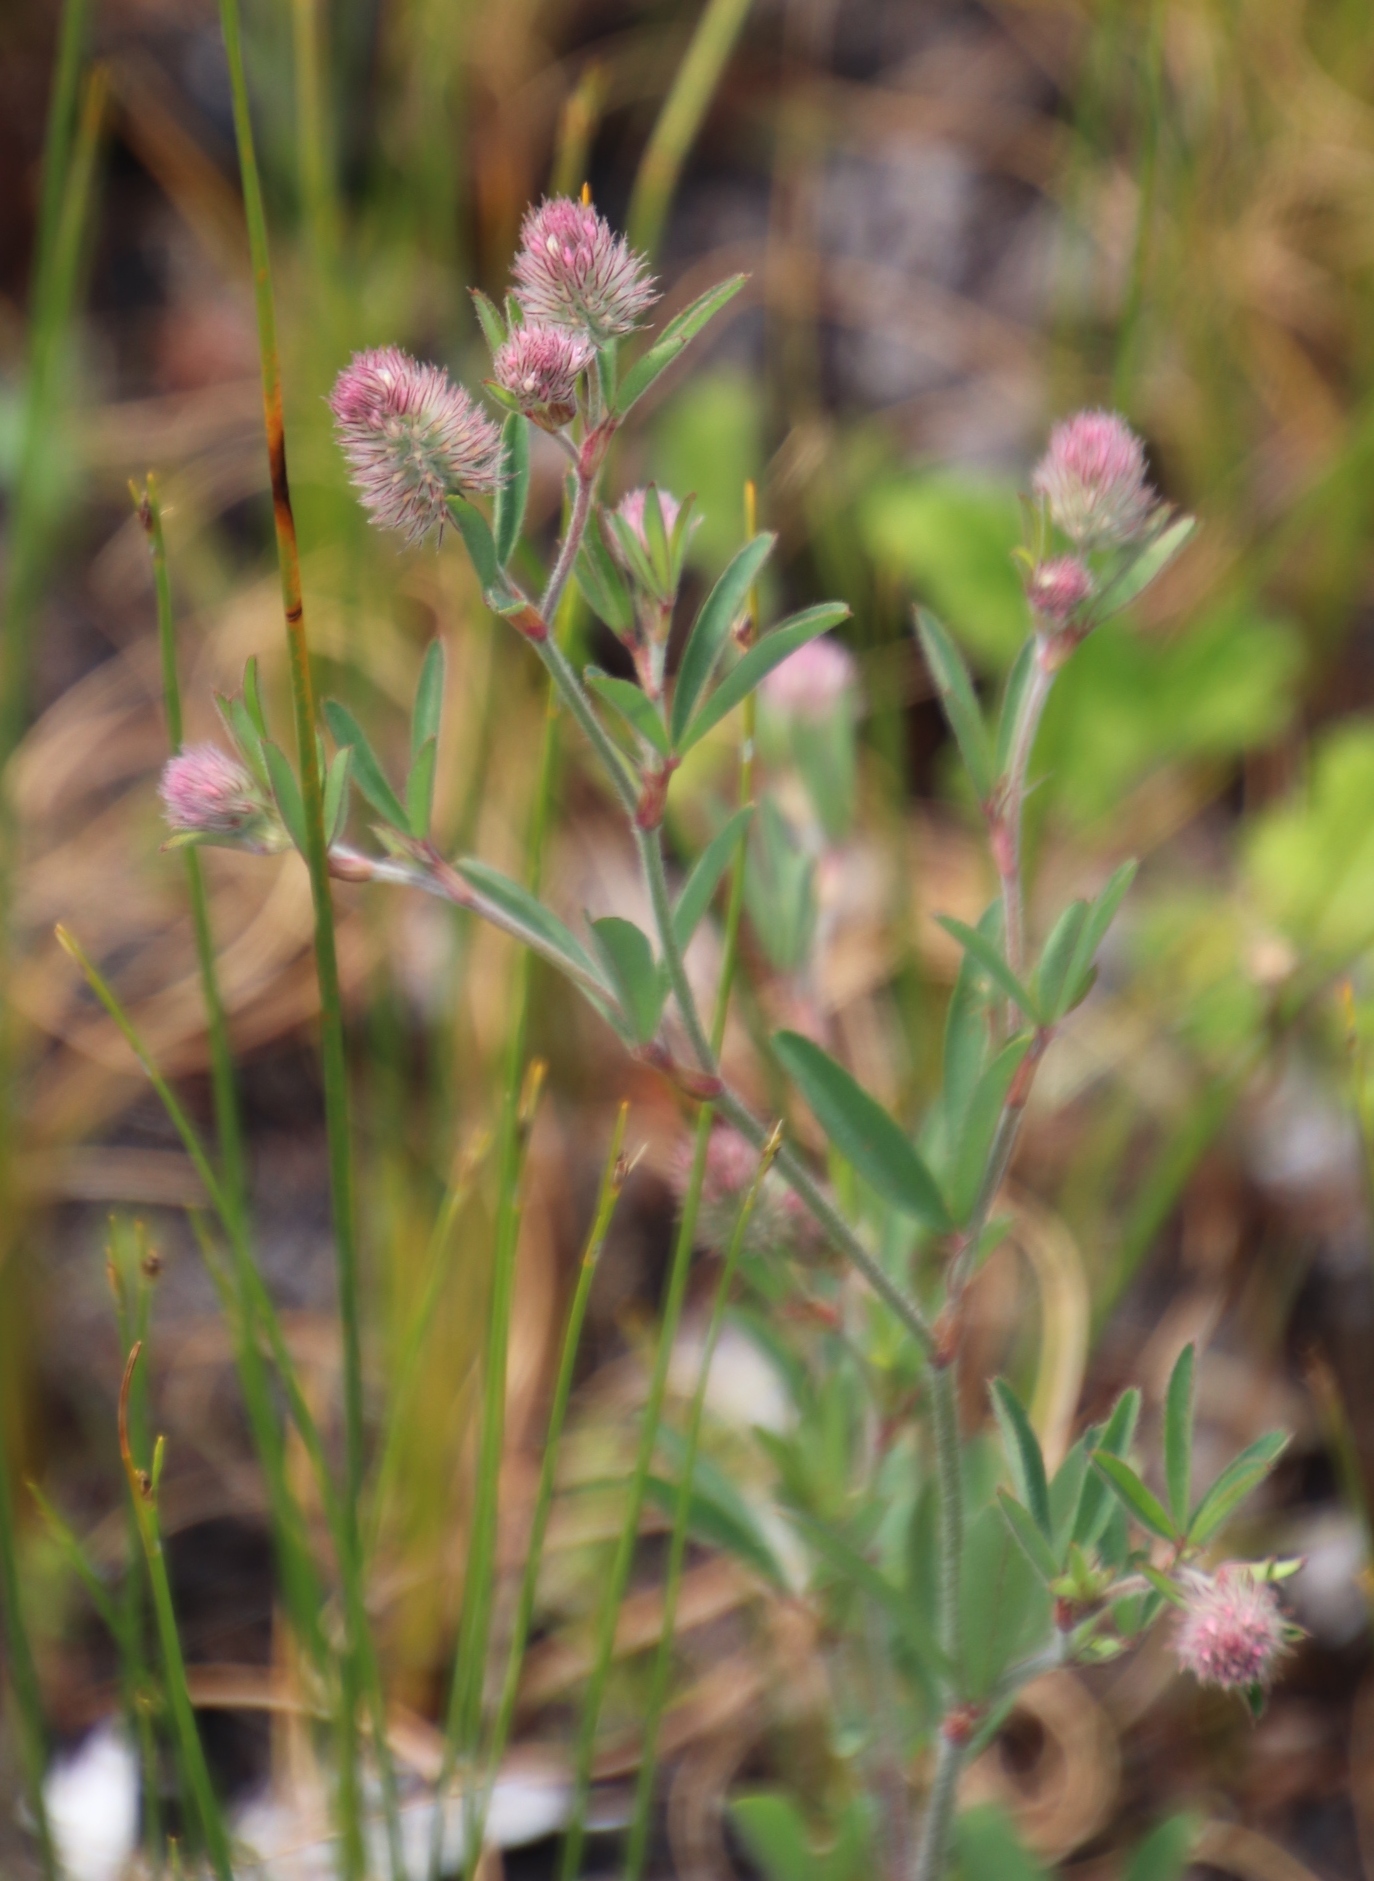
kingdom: Plantae
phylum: Tracheophyta
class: Magnoliopsida
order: Fabales
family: Fabaceae
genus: Trifolium
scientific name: Trifolium arvense
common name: Hare's-foot clover
